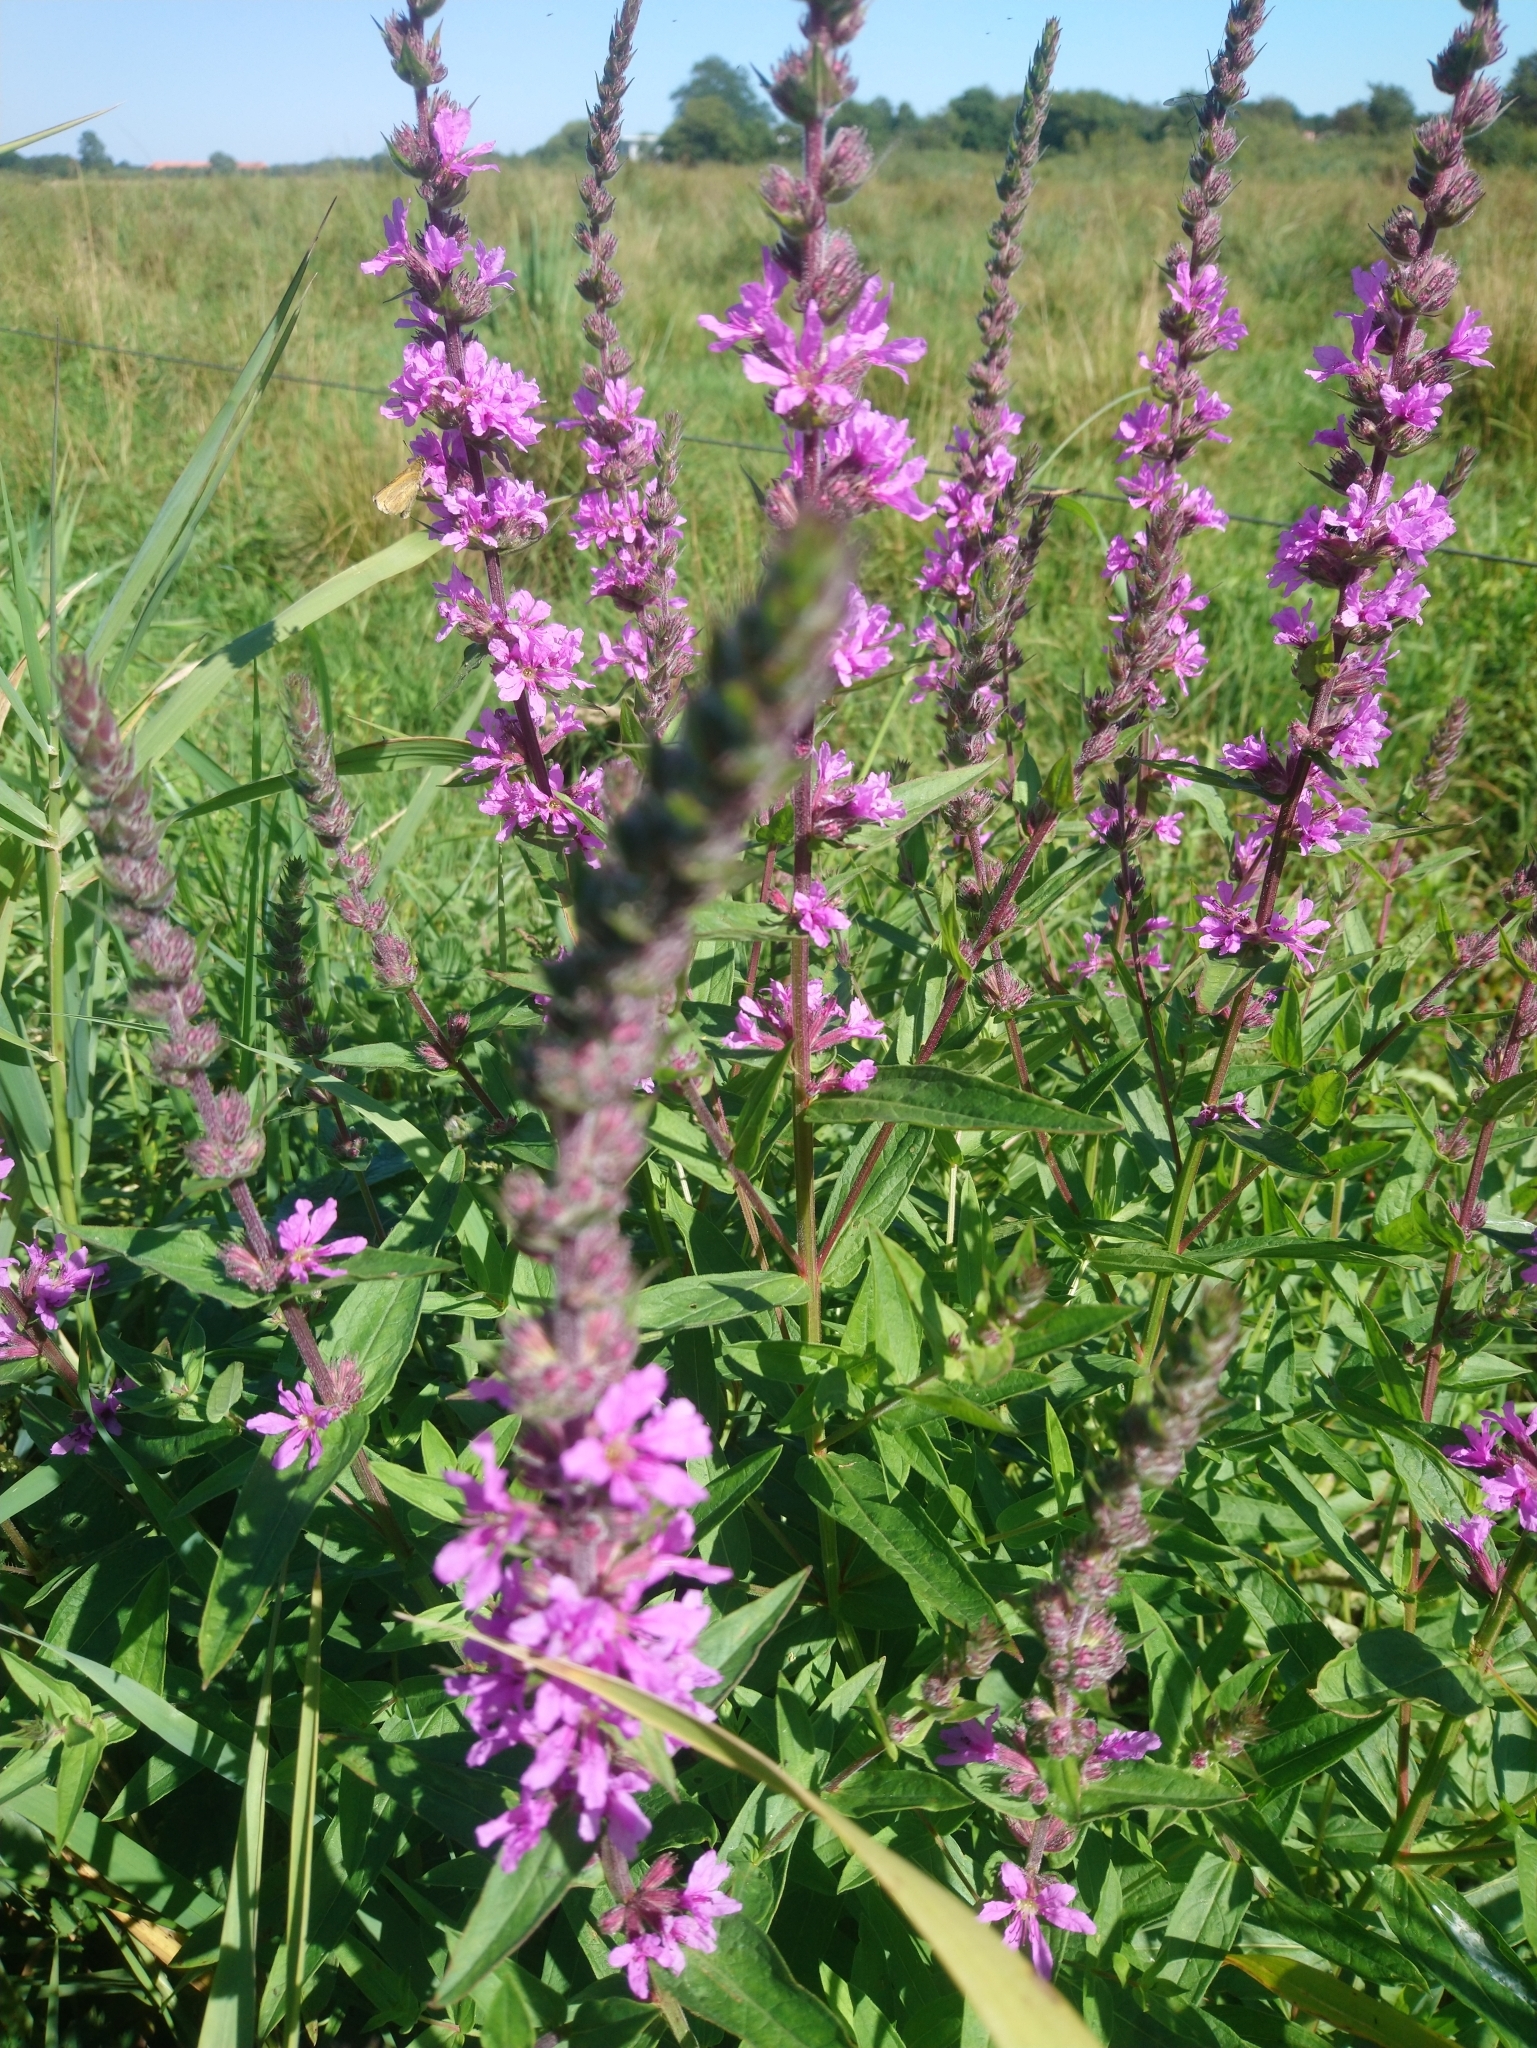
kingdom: Plantae
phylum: Tracheophyta
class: Magnoliopsida
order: Myrtales
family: Lythraceae
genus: Lythrum
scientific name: Lythrum salicaria
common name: Purple loosestrife
